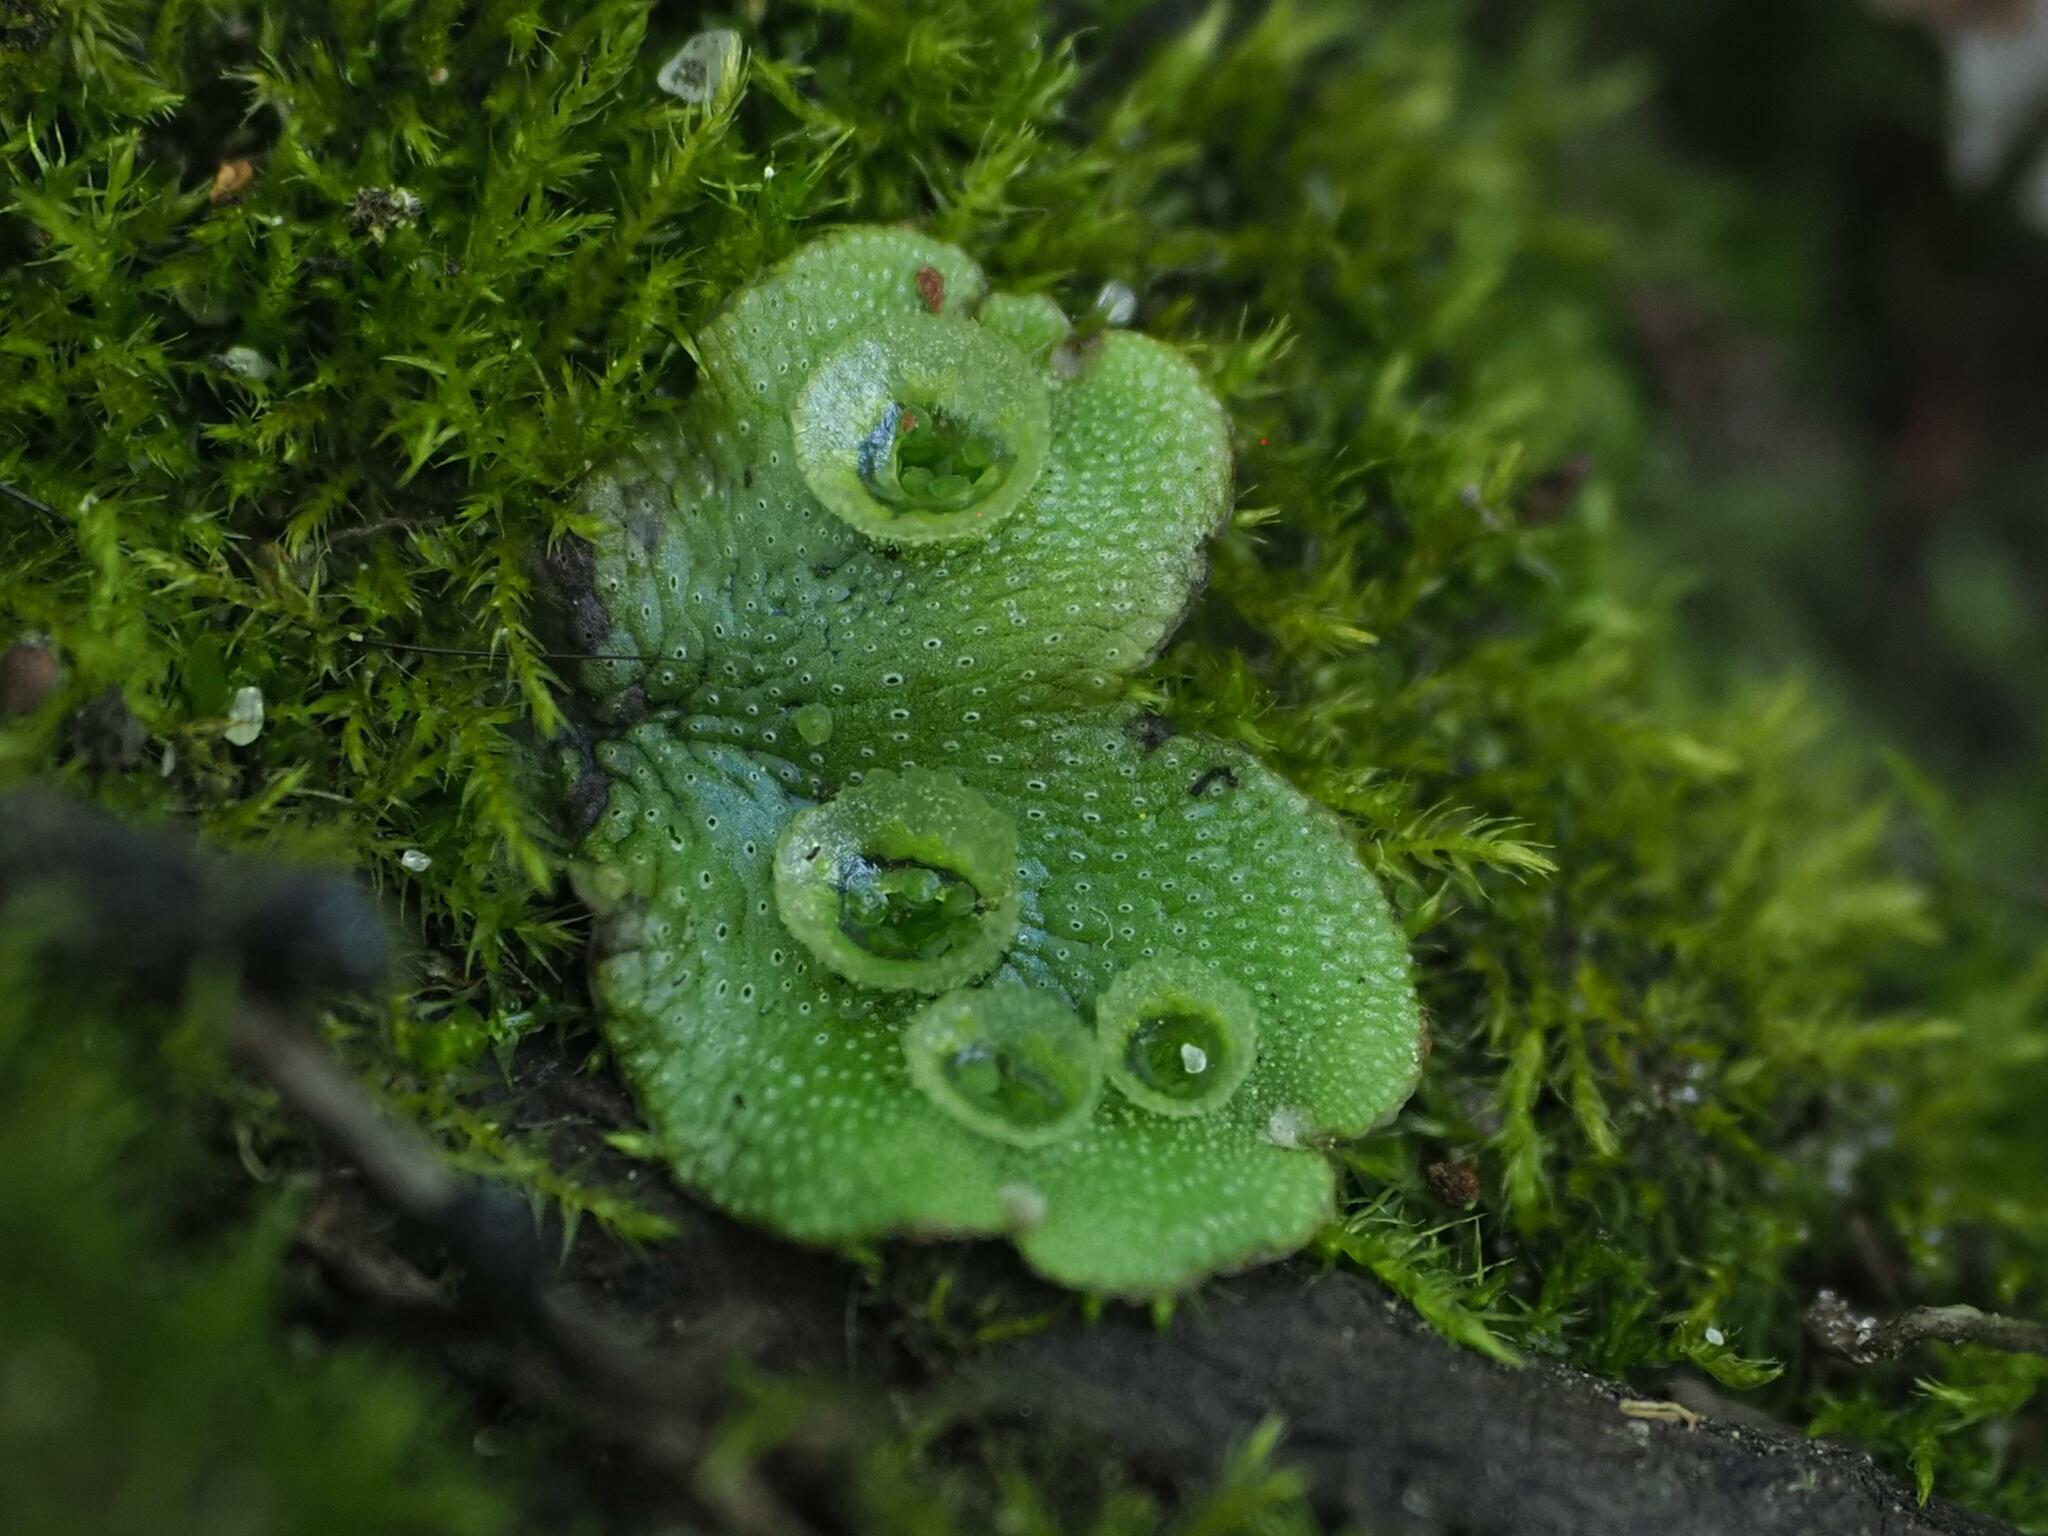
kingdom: Plantae
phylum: Marchantiophyta
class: Marchantiopsida
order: Marchantiales
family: Marchantiaceae
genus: Marchantia
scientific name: Marchantia polymorpha
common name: Common liverwort
